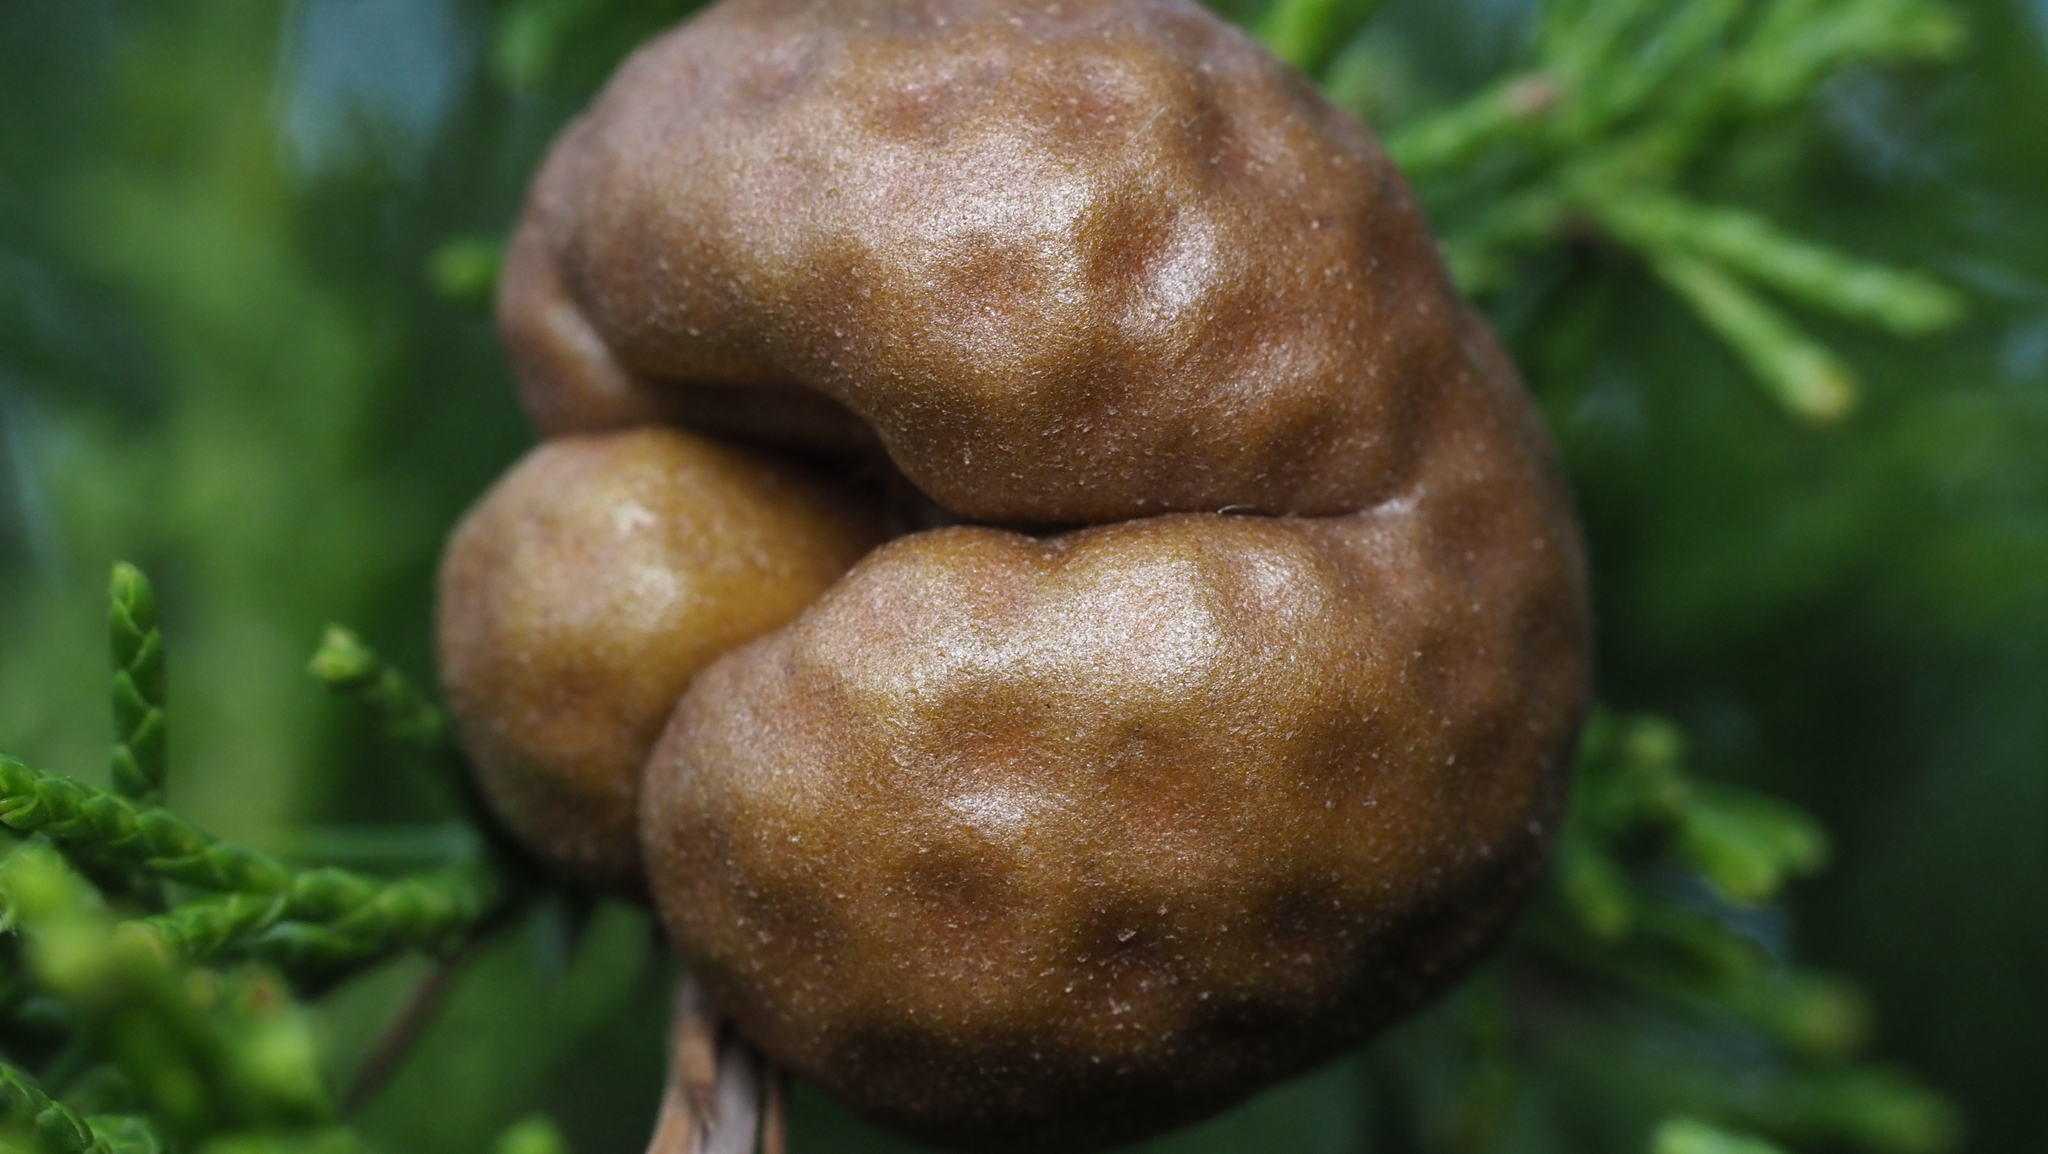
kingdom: Fungi
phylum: Basidiomycota
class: Pucciniomycetes
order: Pucciniales
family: Gymnosporangiaceae
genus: Gymnosporangium
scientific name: Gymnosporangium juniperi-virginianae
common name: Juniper-apple rust
